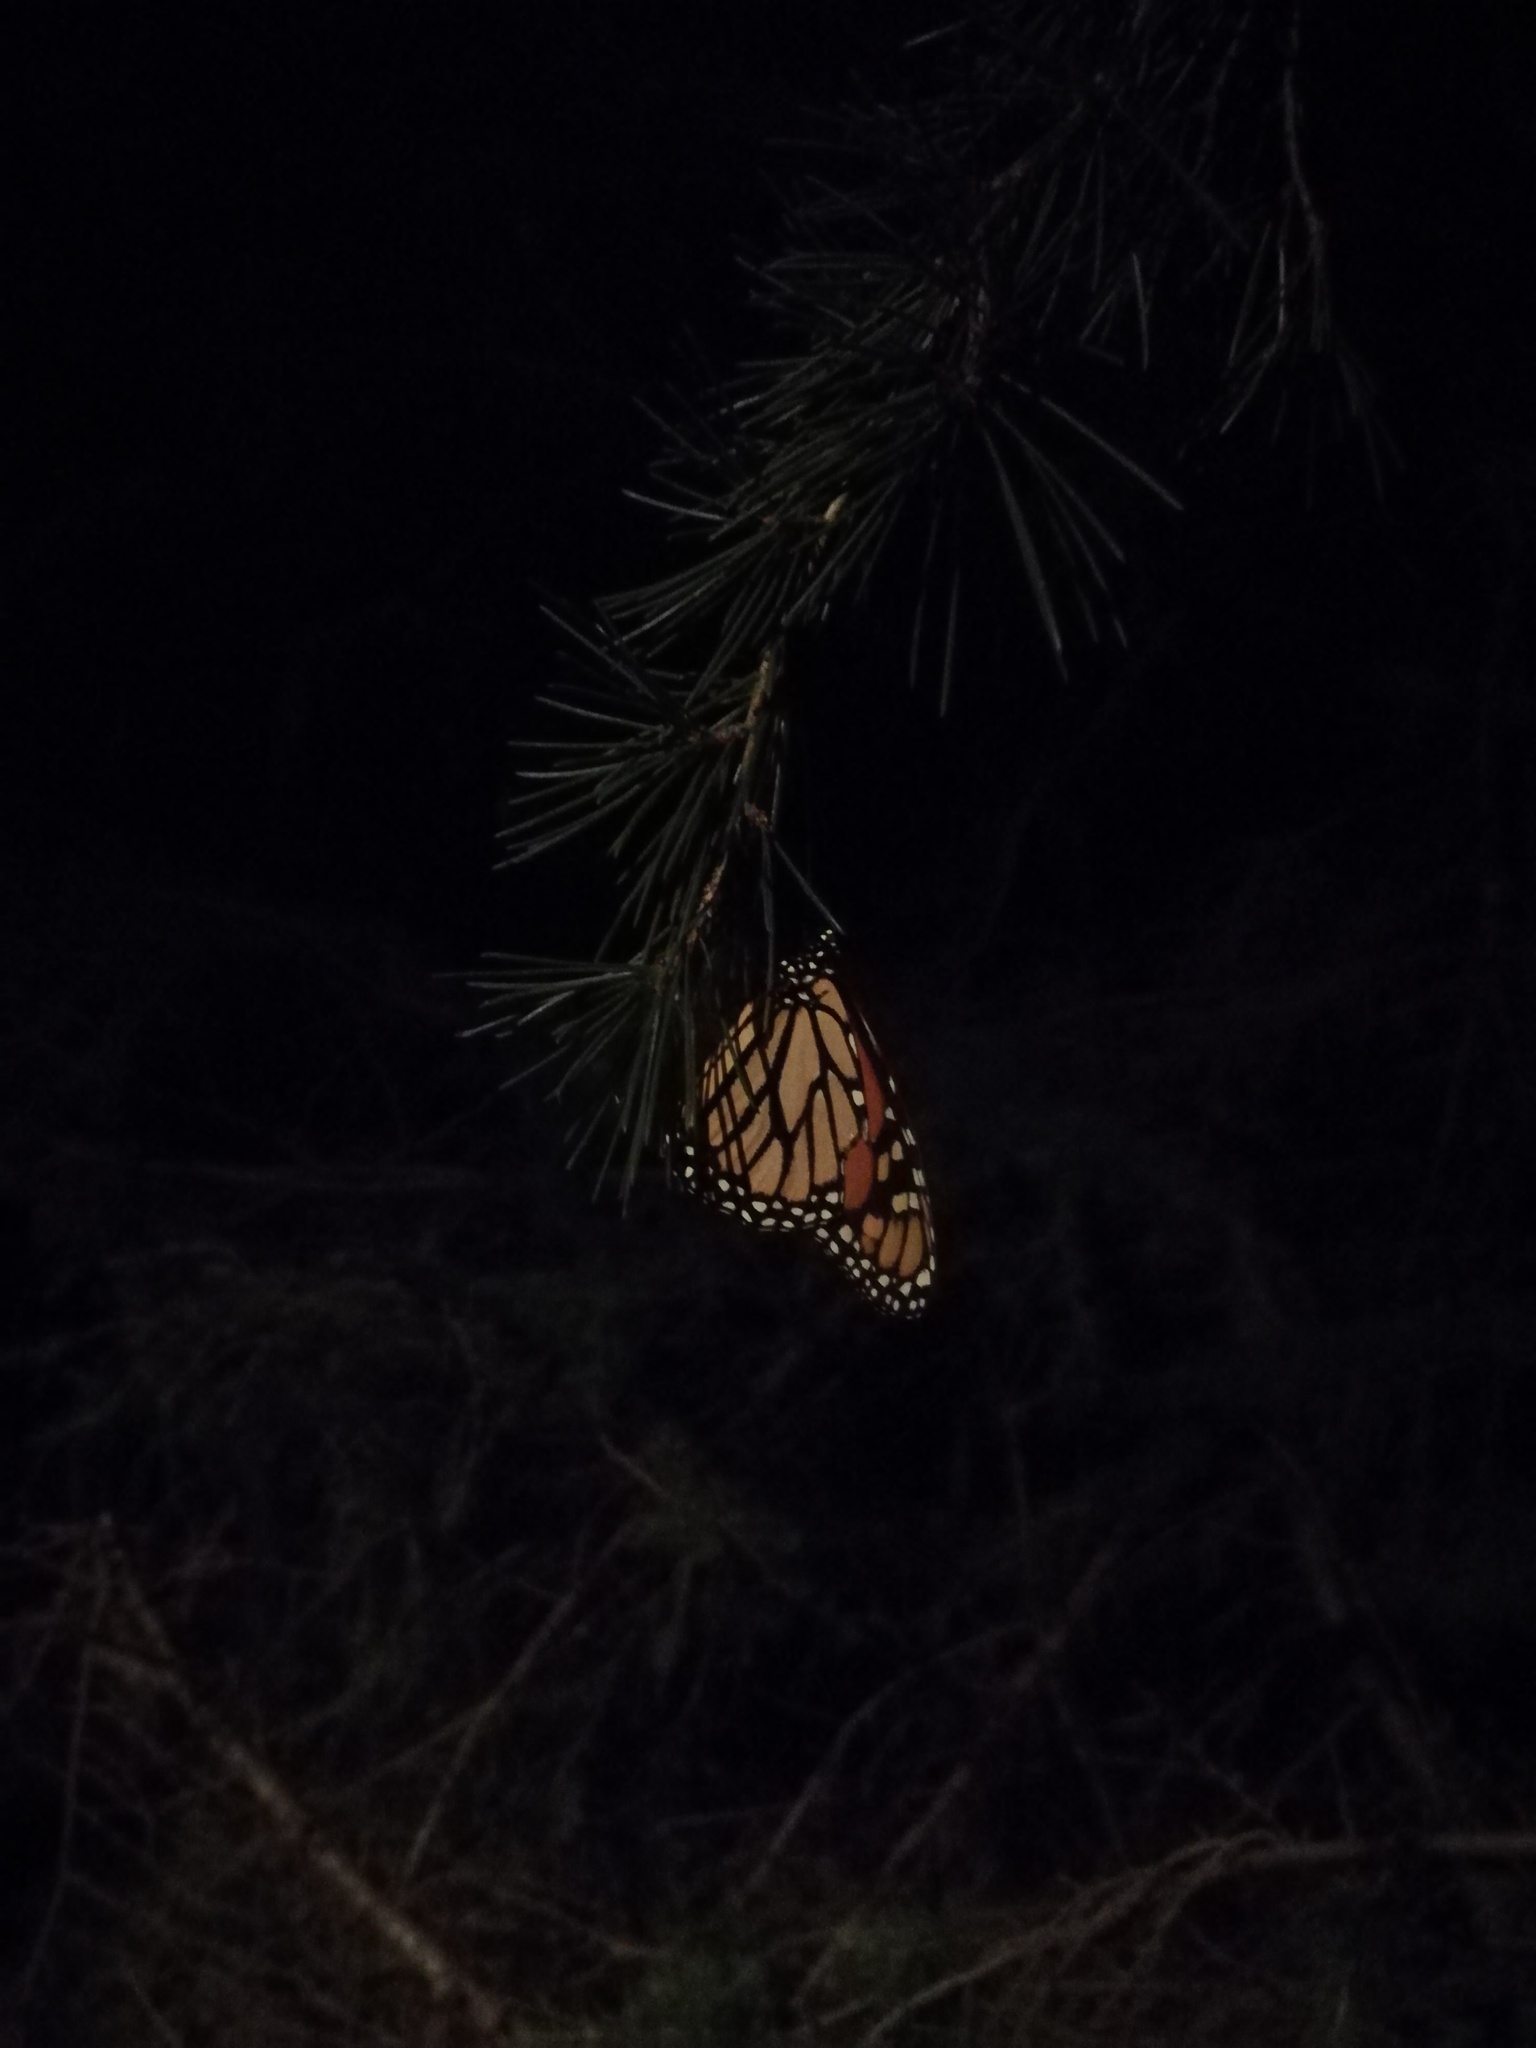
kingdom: Animalia
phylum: Arthropoda
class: Insecta
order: Lepidoptera
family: Nymphalidae
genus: Danaus
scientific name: Danaus plexippus
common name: Monarch
